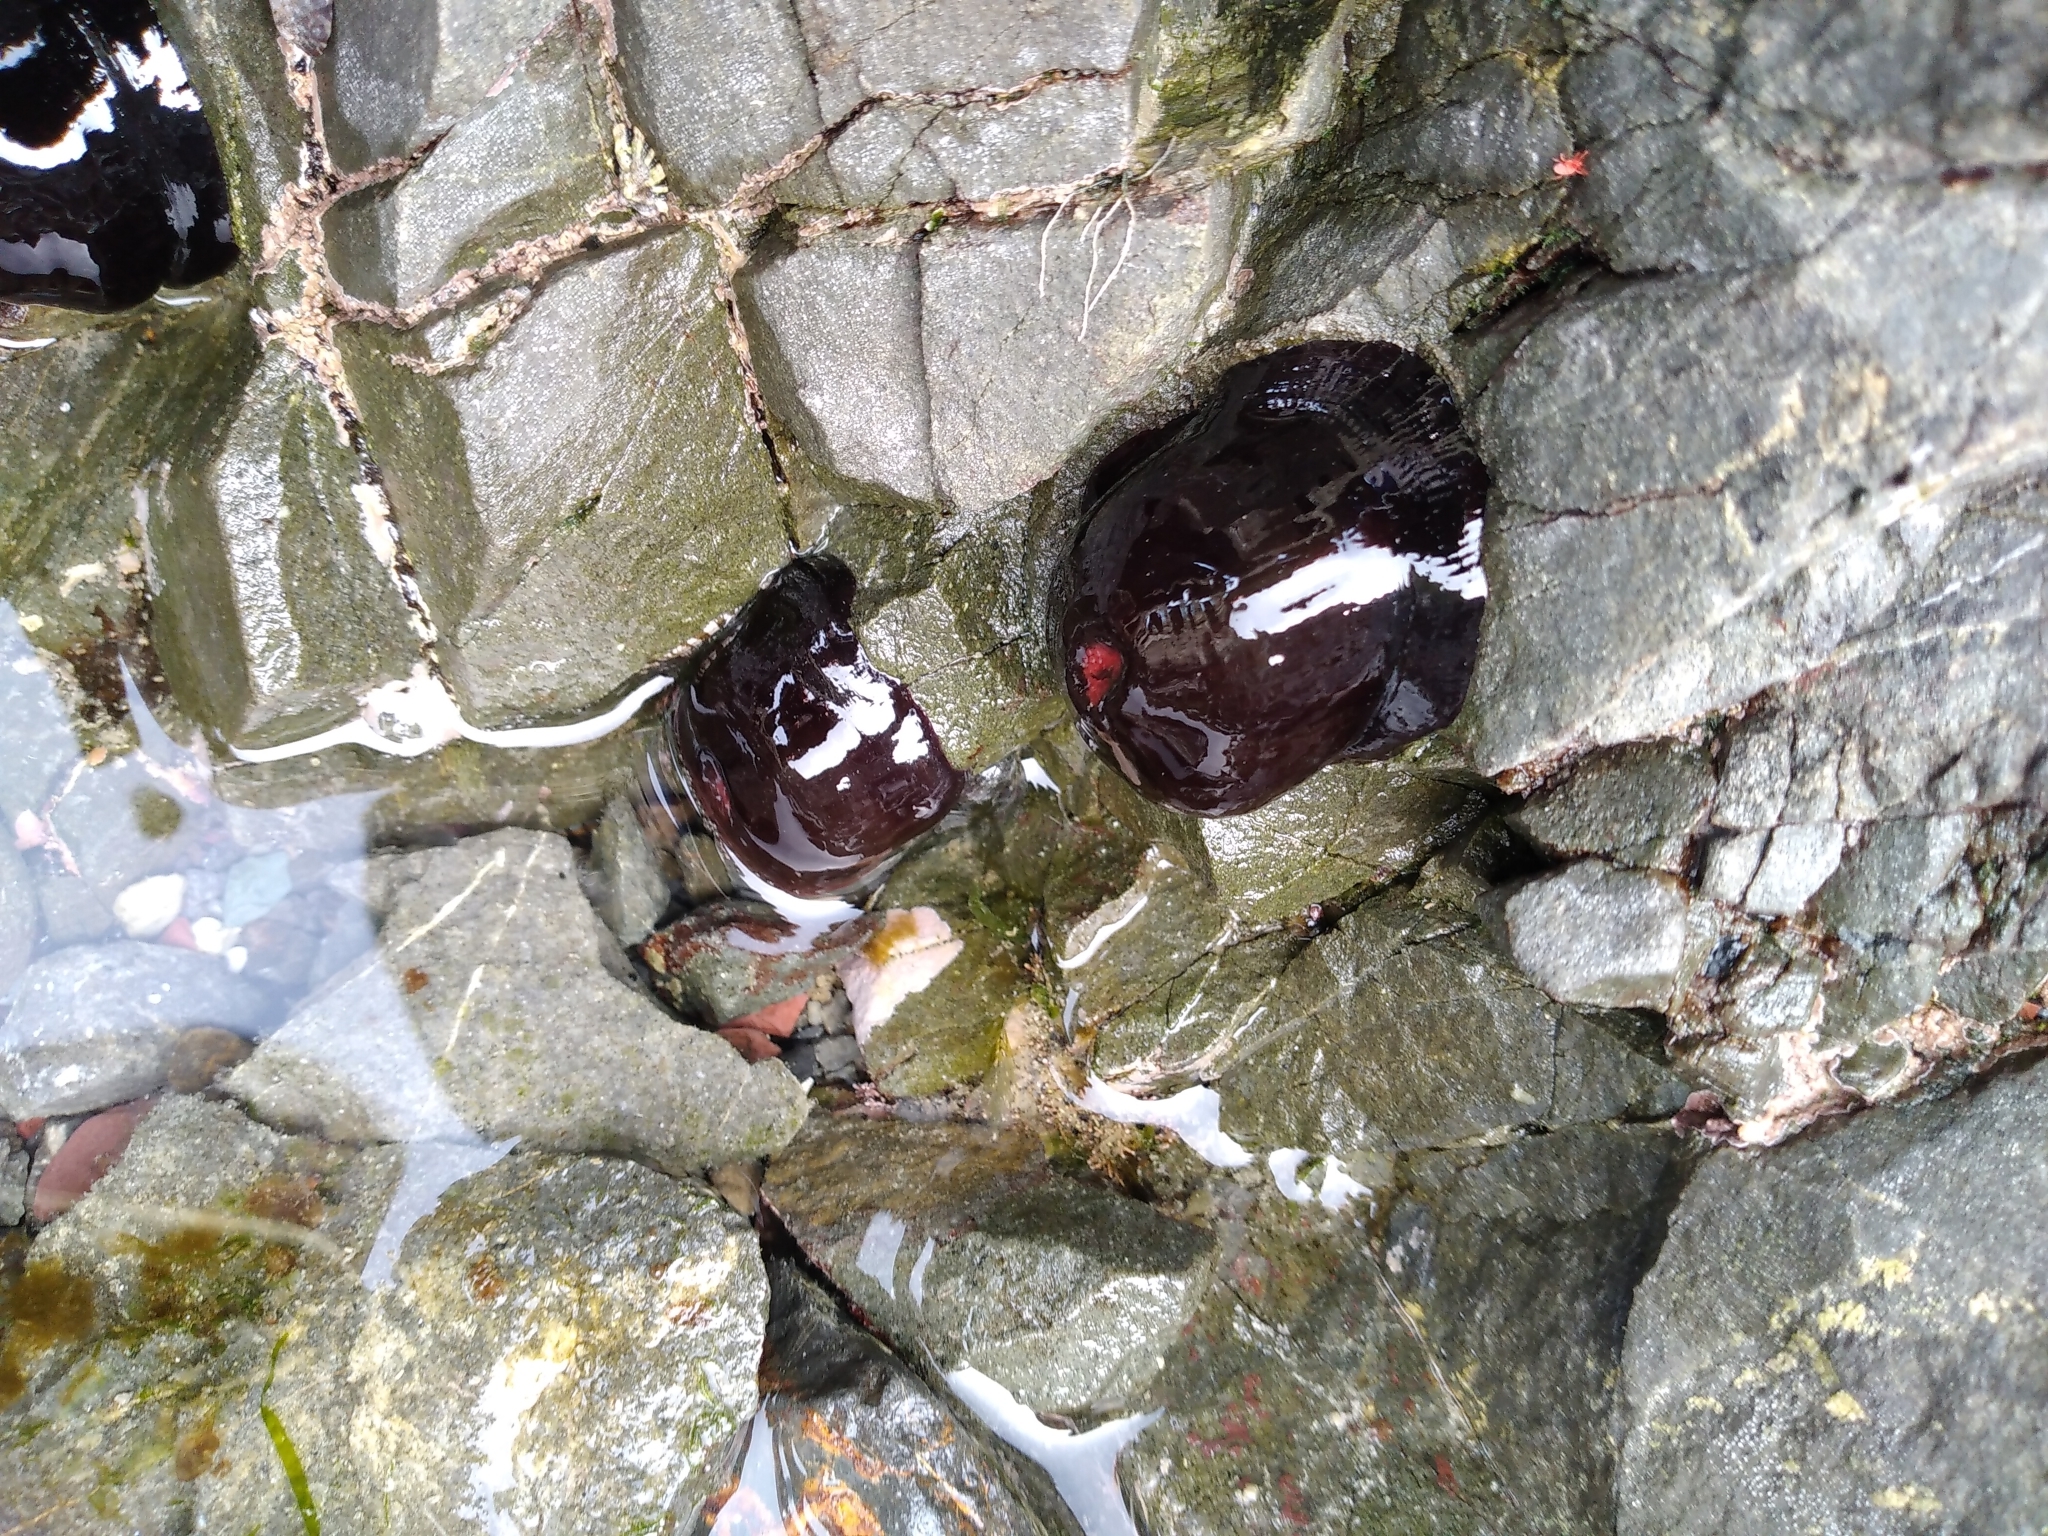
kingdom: Animalia
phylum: Cnidaria
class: Anthozoa
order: Actiniaria
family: Actiniidae
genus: Actinia
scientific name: Actinia tenebrosa
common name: Waratah anemone
